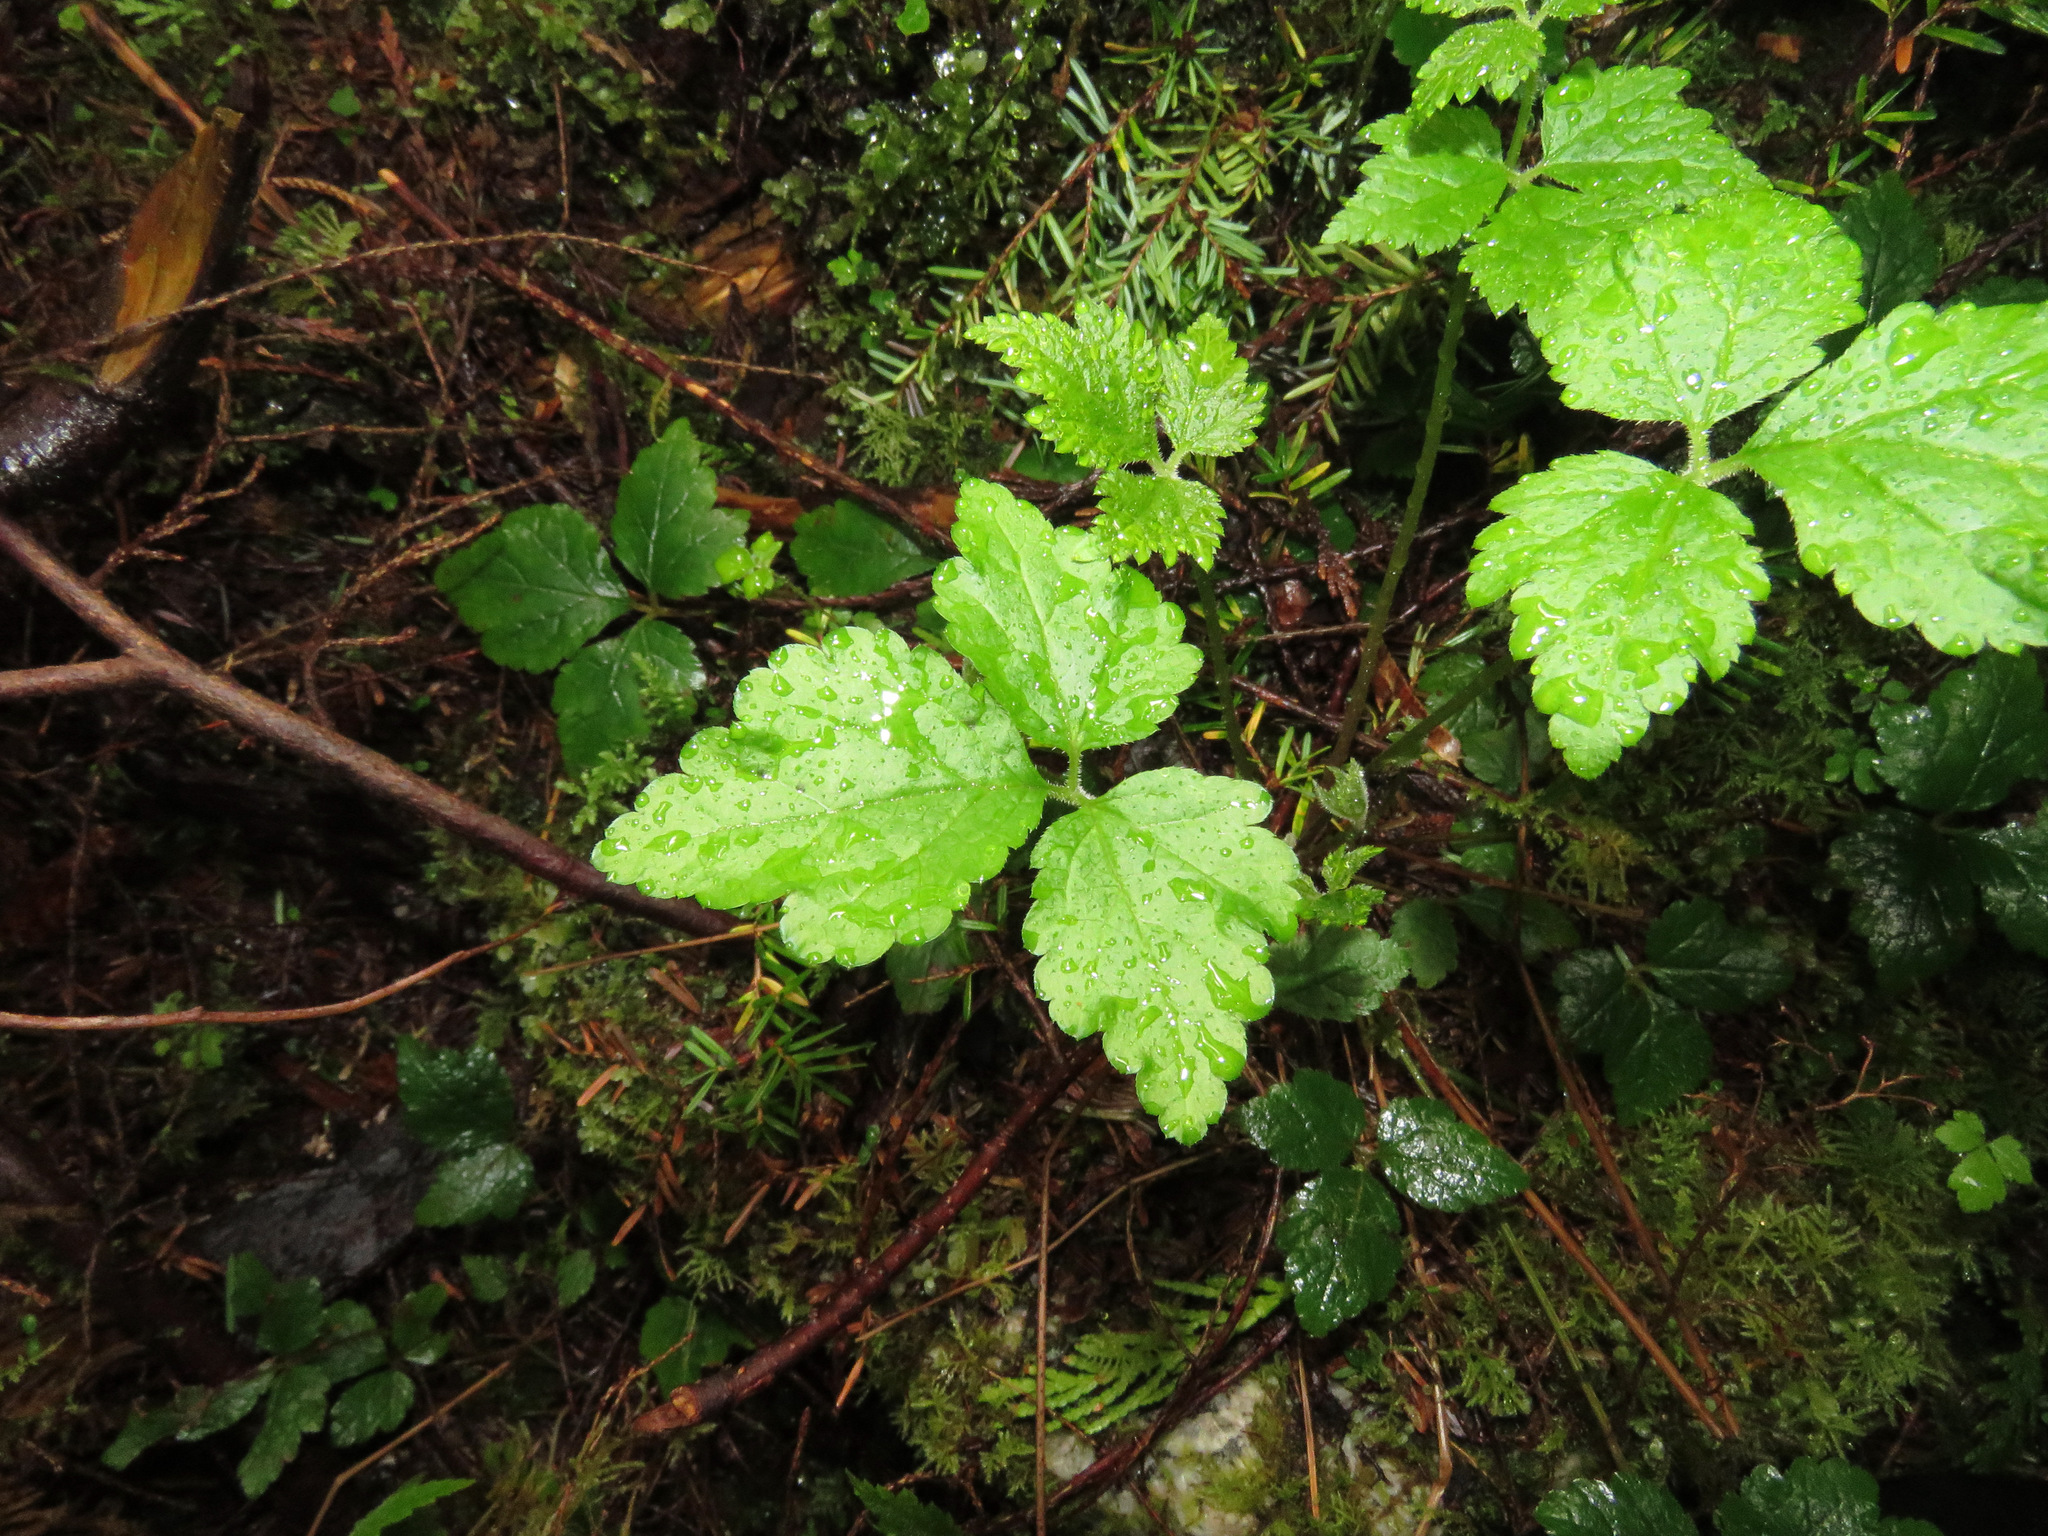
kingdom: Plantae
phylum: Tracheophyta
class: Magnoliopsida
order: Saxifragales
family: Saxifragaceae
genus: Tiarella
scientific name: Tiarella trifoliata
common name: Sugar-scoop
